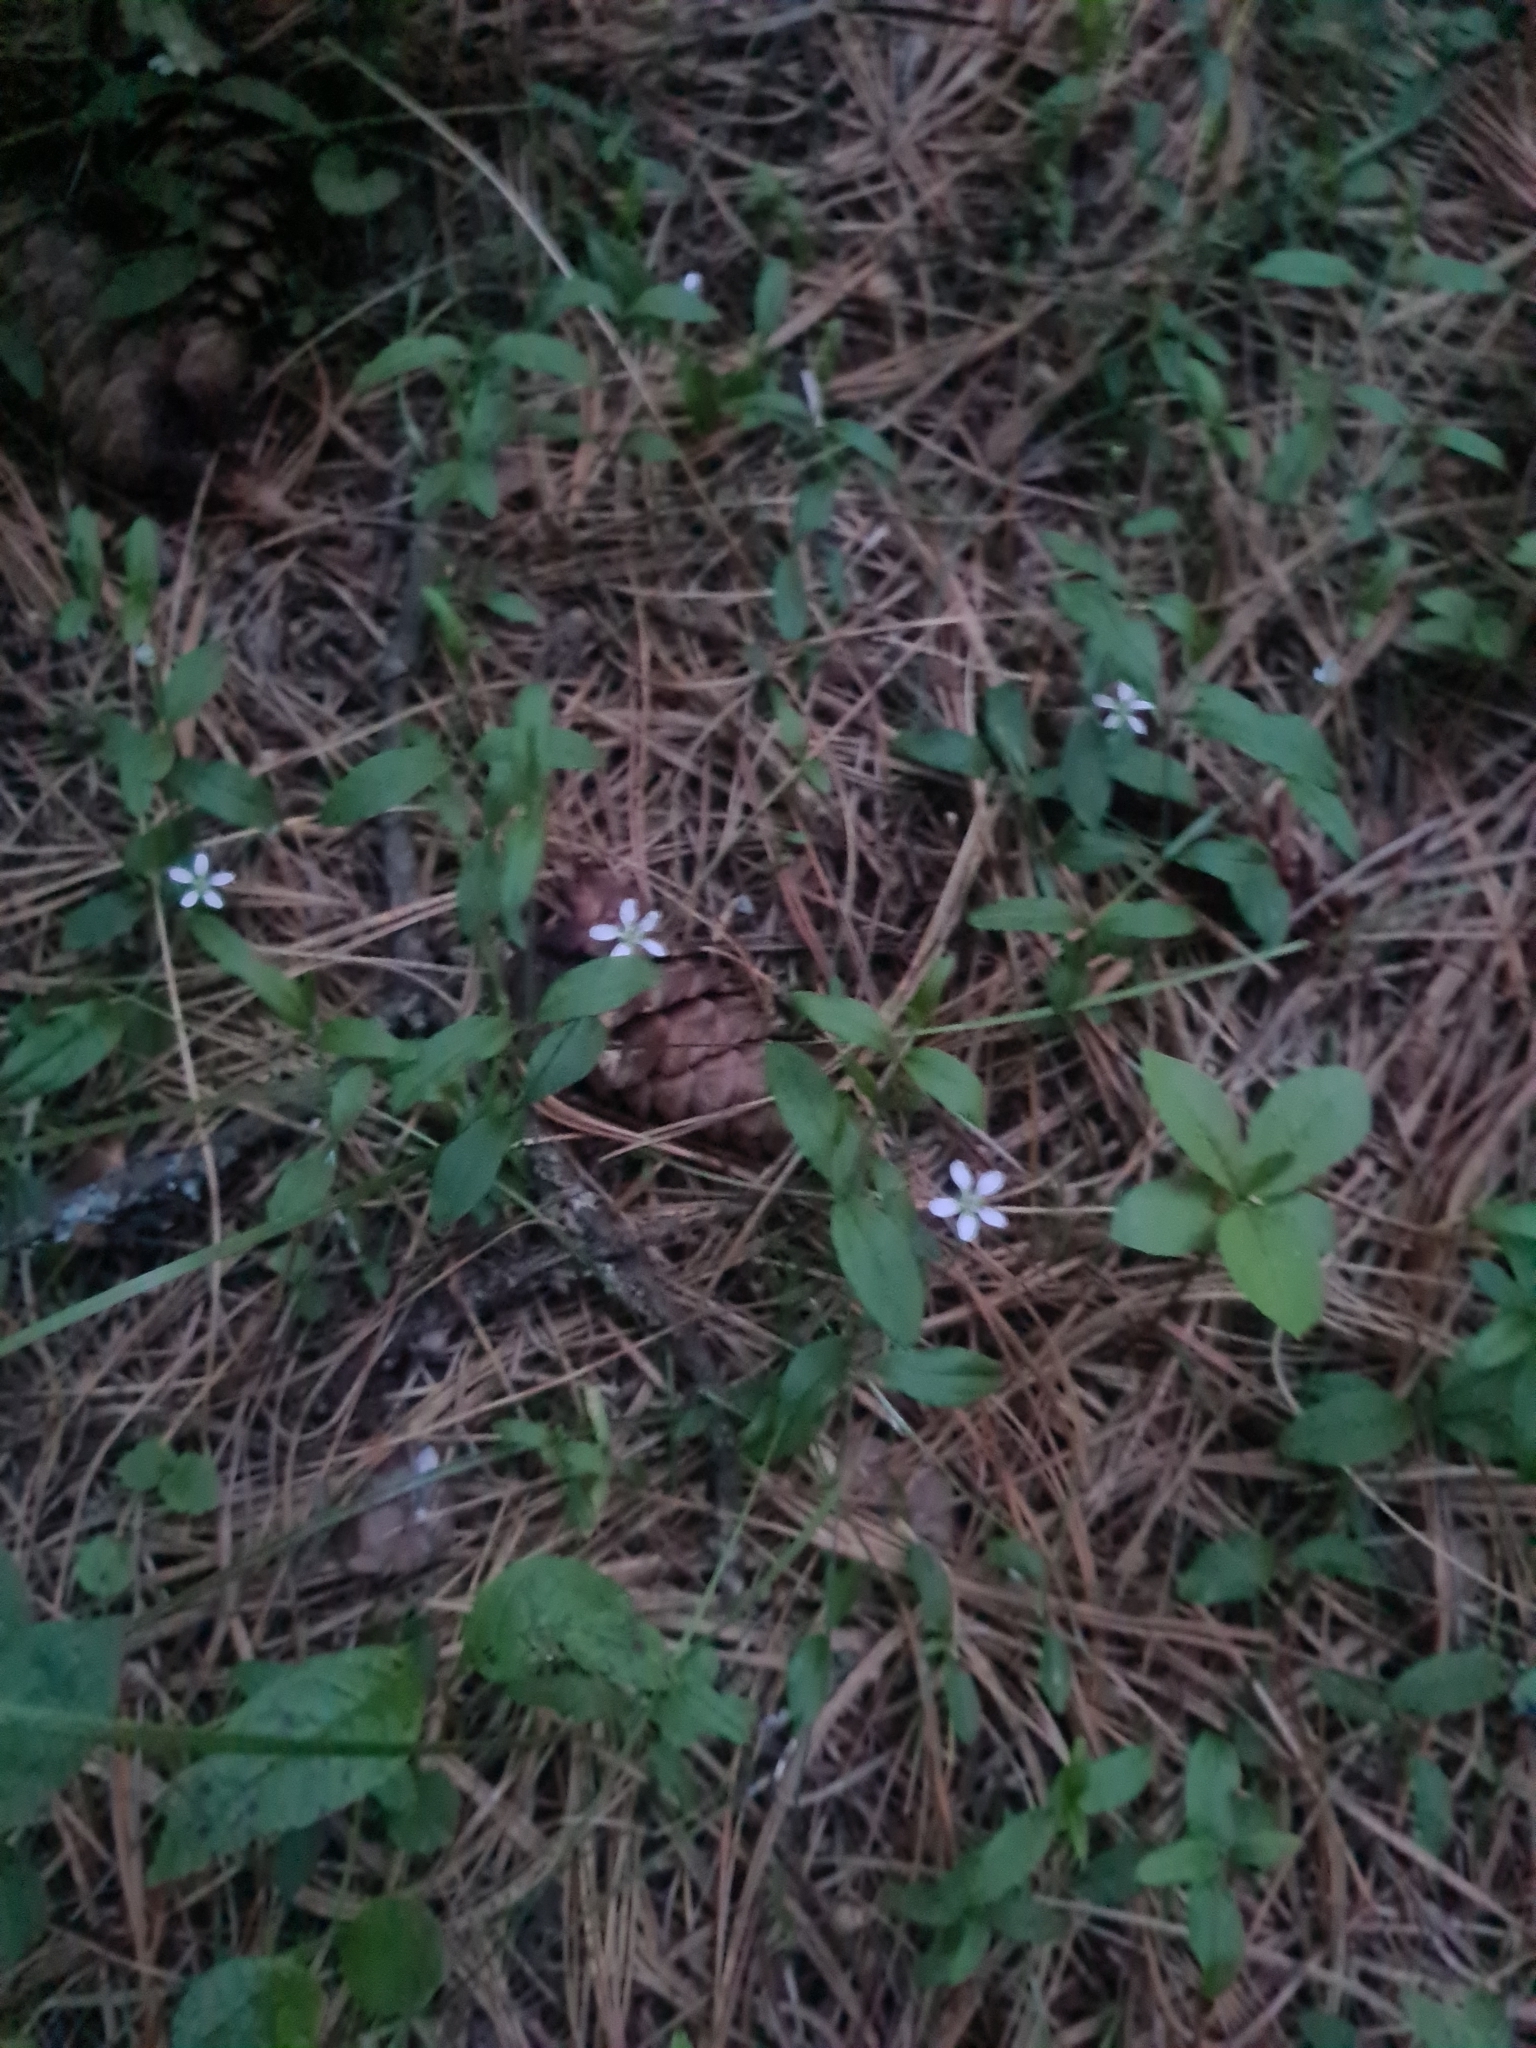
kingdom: Plantae
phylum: Tracheophyta
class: Magnoliopsida
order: Caryophyllales
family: Caryophyllaceae
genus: Moehringia
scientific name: Moehringia lateriflora
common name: Blunt-leaved sandwort
